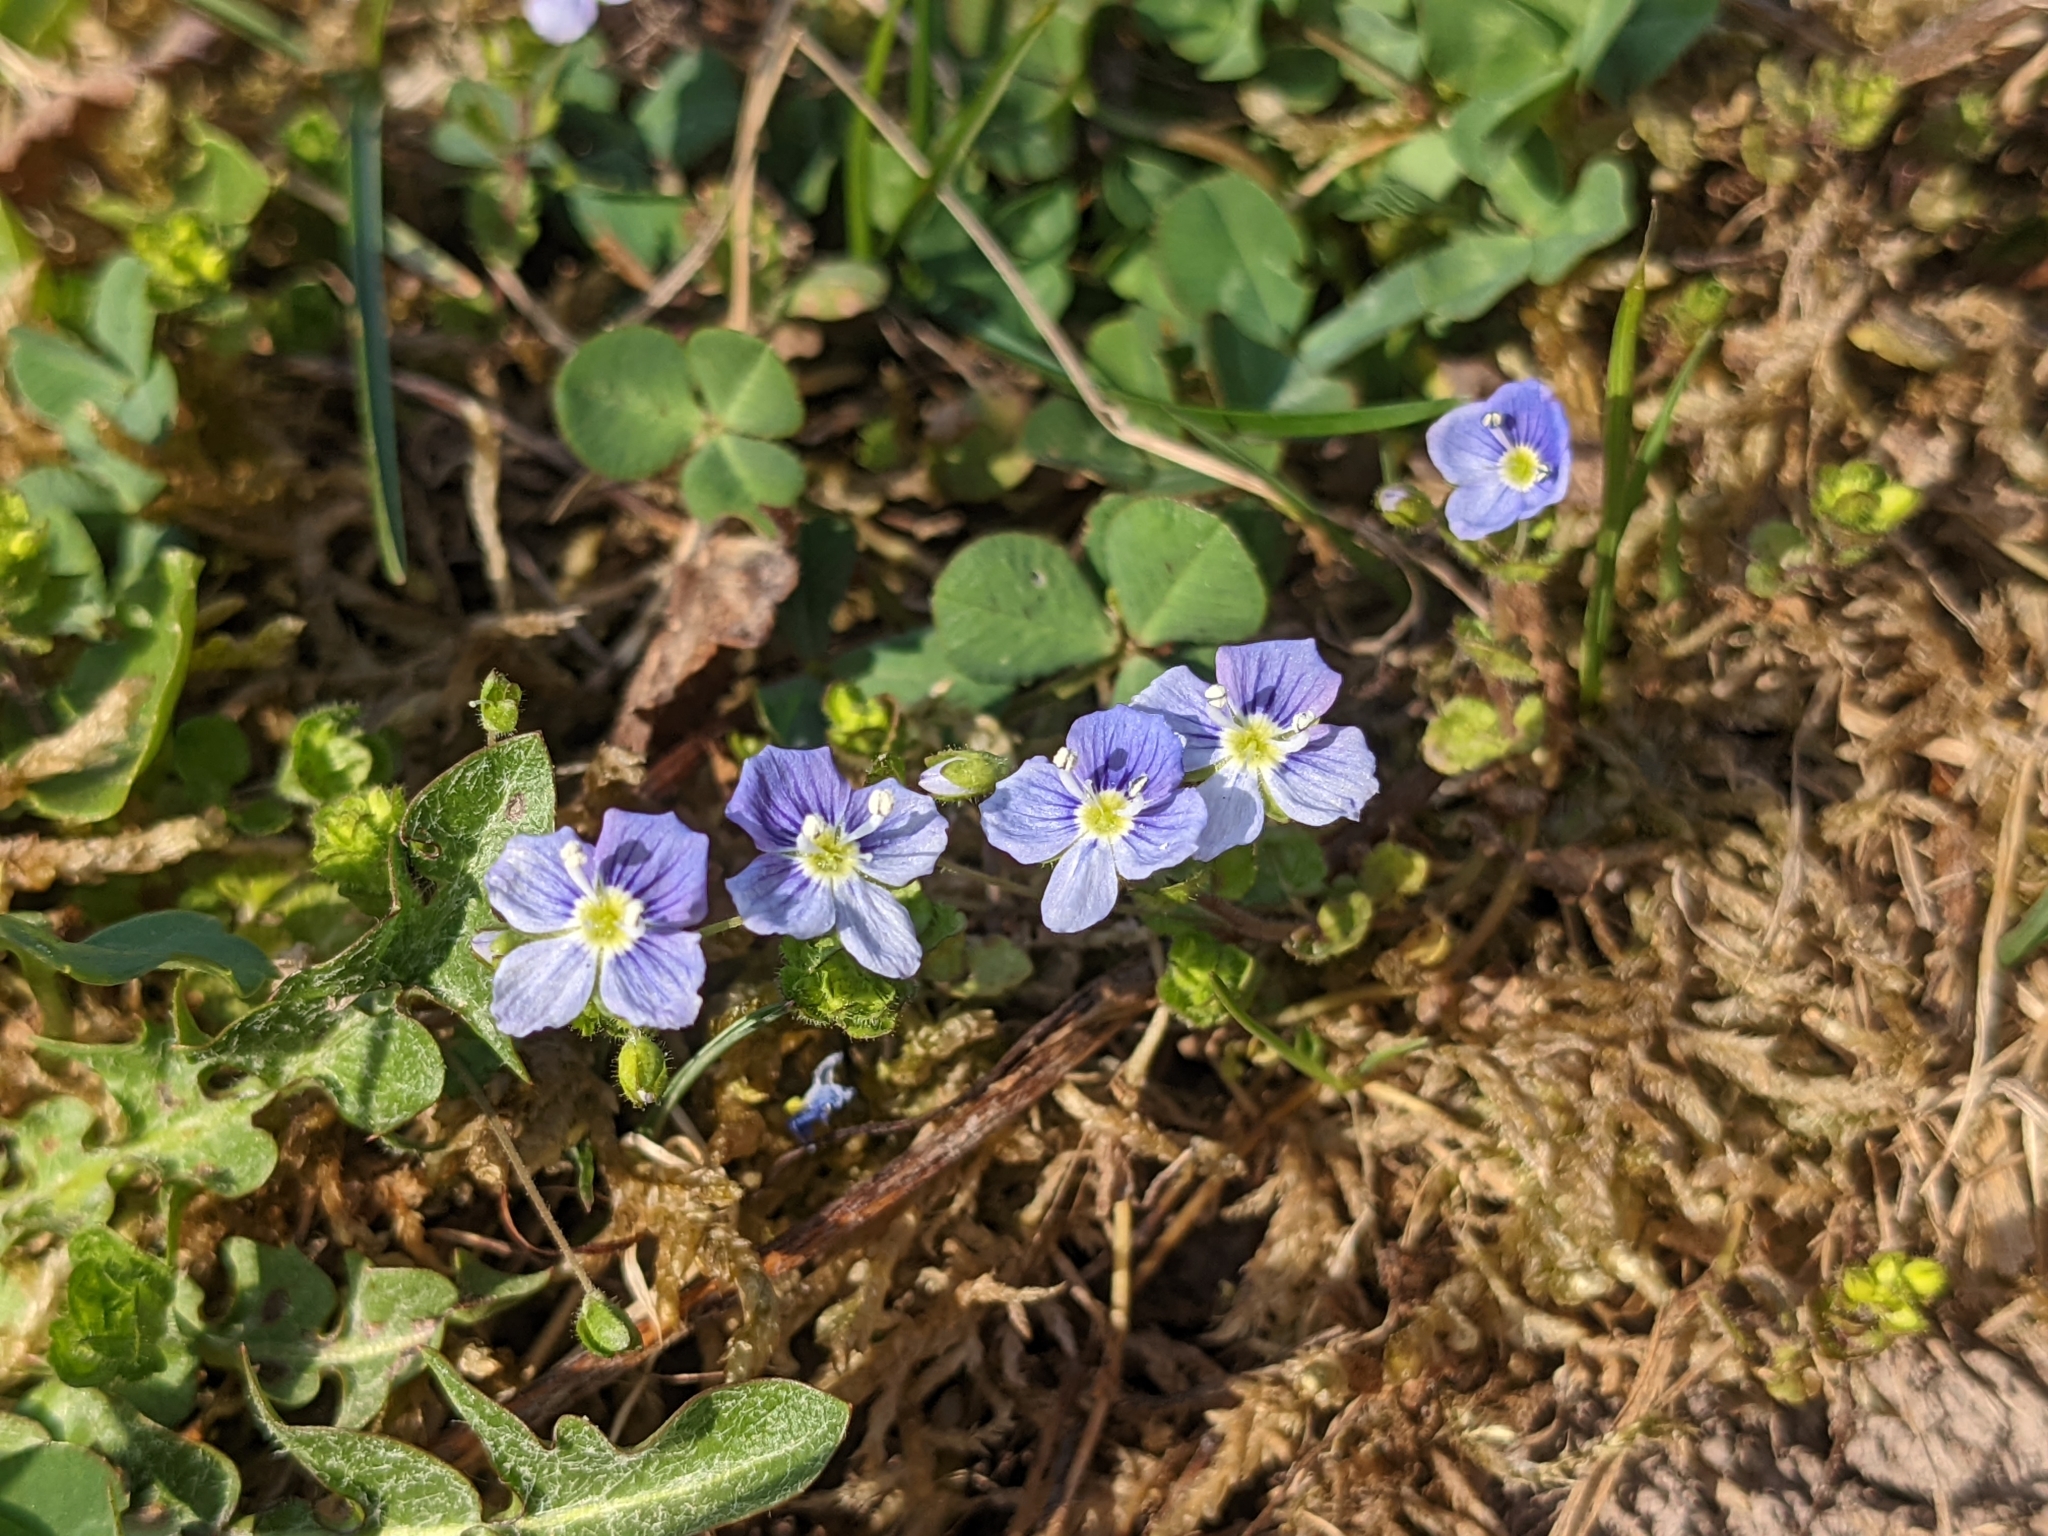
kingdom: Plantae
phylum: Tracheophyta
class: Magnoliopsida
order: Lamiales
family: Plantaginaceae
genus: Veronica
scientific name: Veronica filiformis
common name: Slender speedwell
